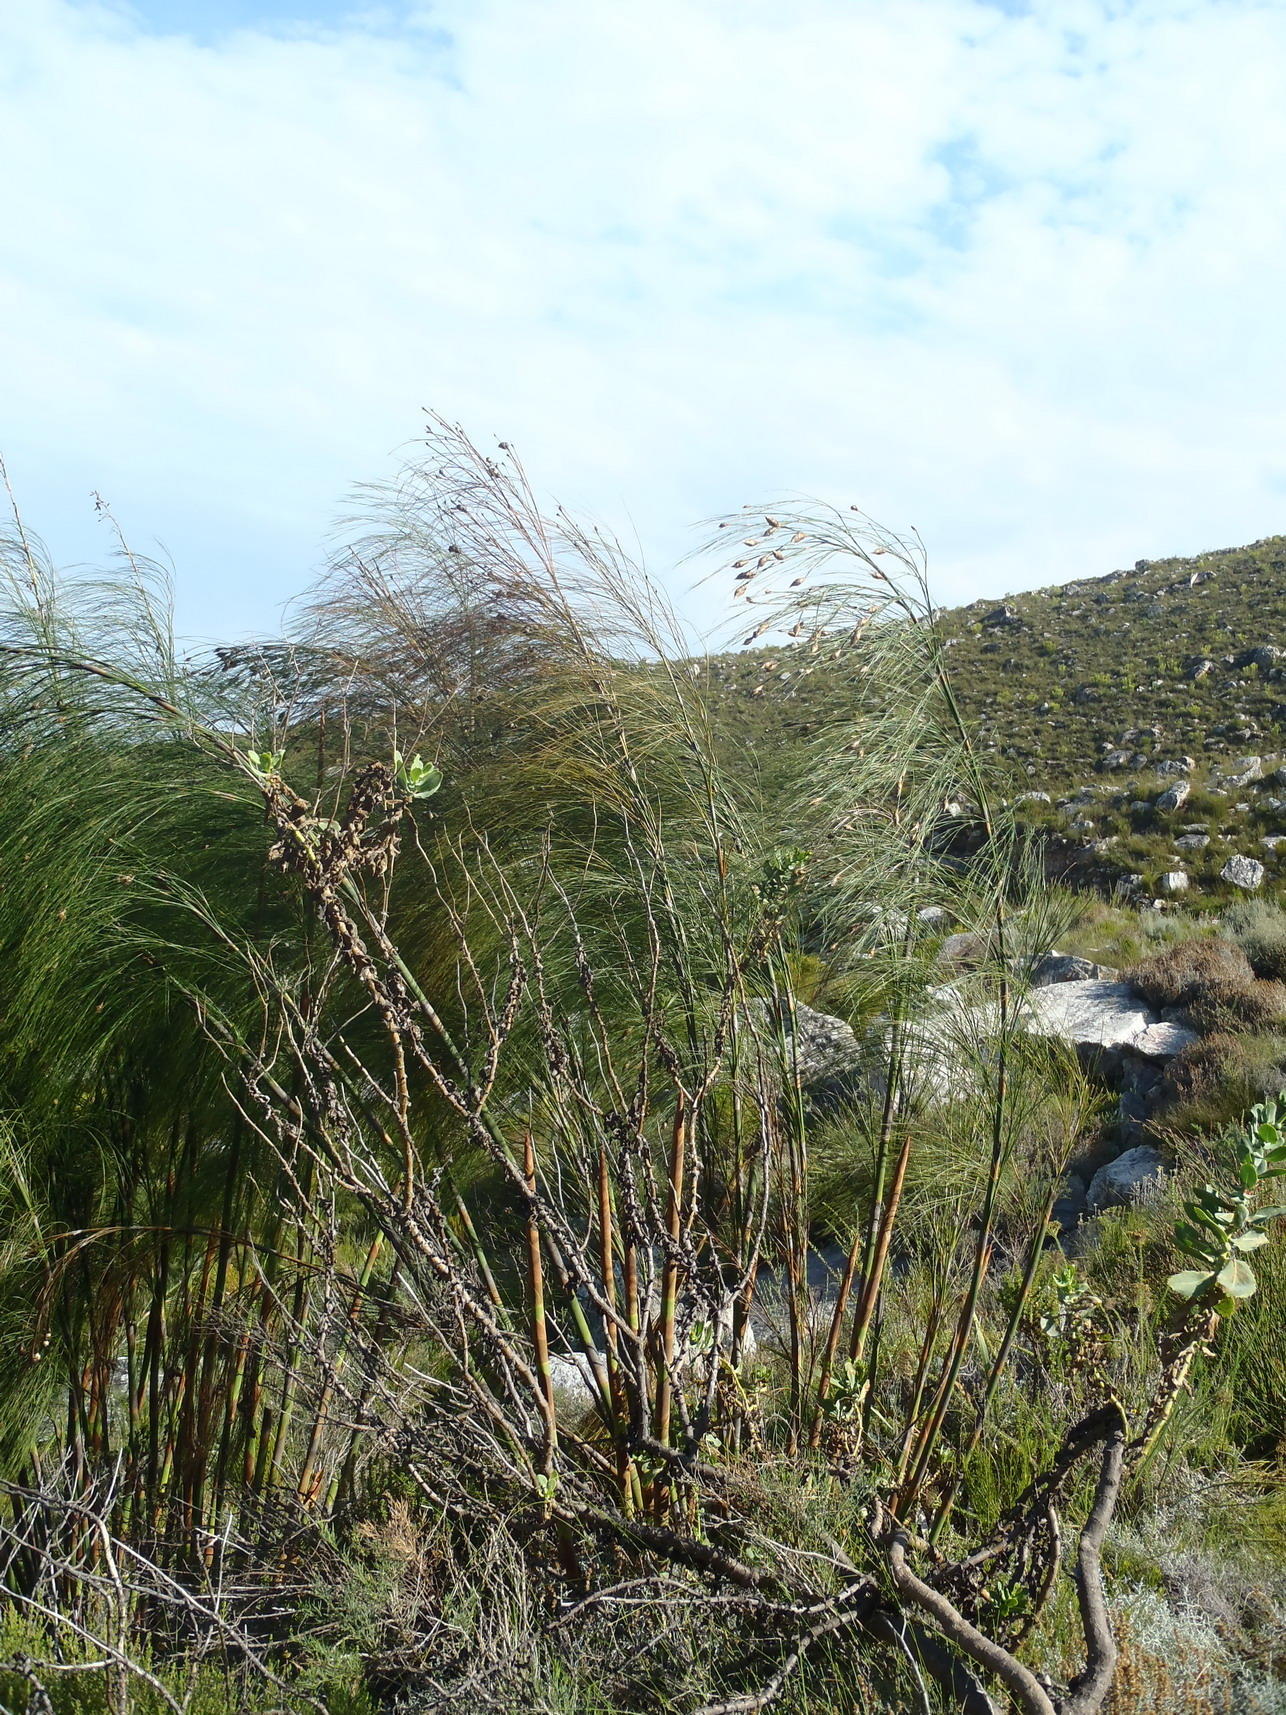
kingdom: Plantae
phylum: Tracheophyta
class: Liliopsida
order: Poales
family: Restionaceae
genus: Cannomois
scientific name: Cannomois grandis
